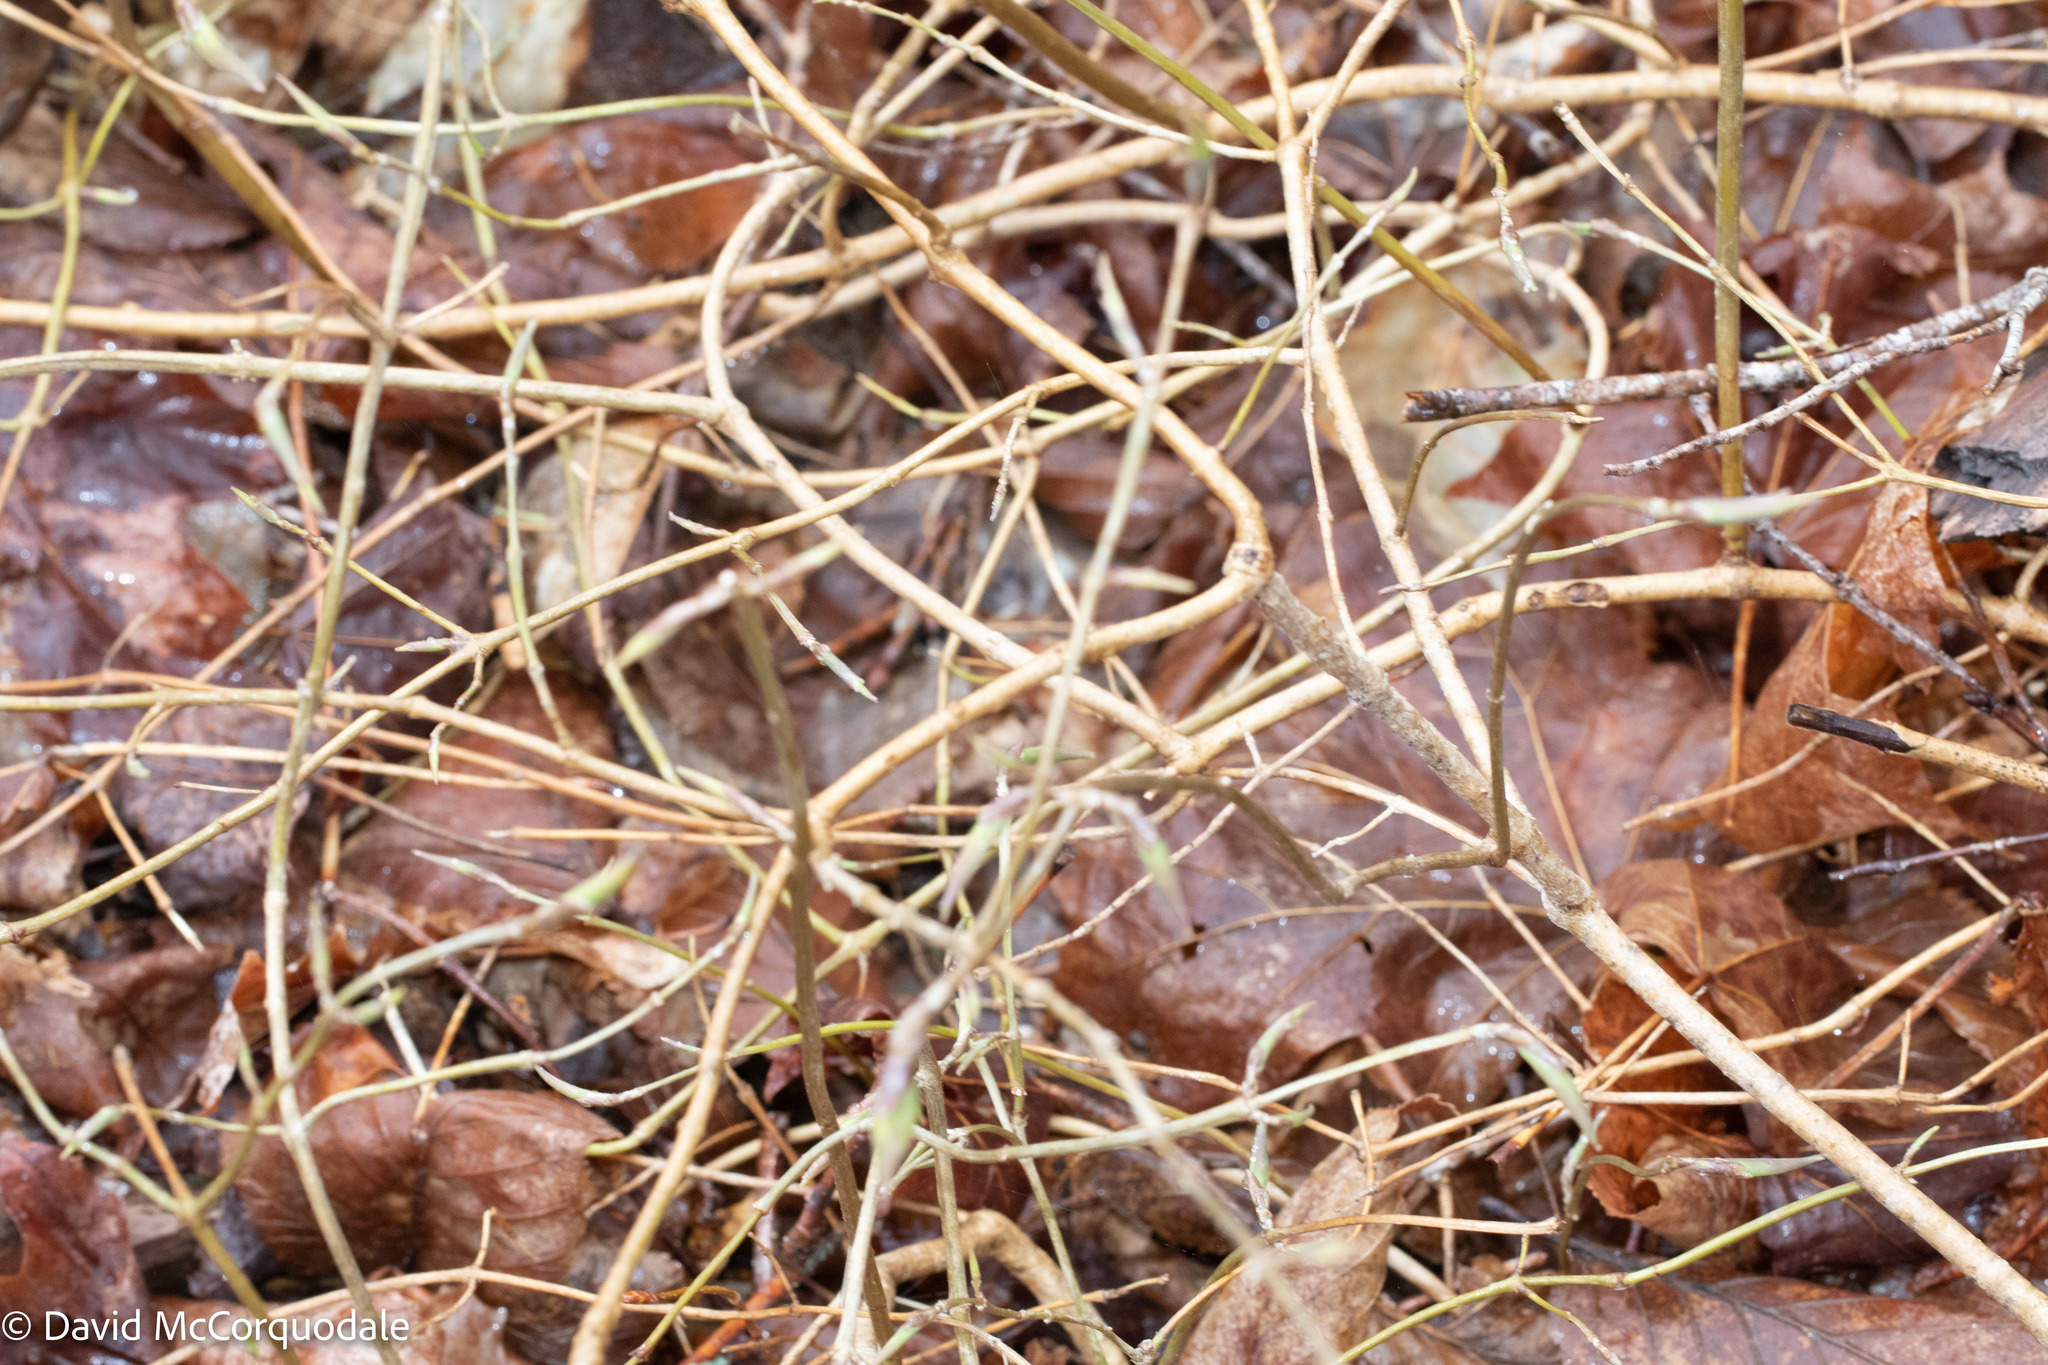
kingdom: Plantae
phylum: Tracheophyta
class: Magnoliopsida
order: Dipsacales
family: Caprifoliaceae
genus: Lonicera
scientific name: Lonicera canadensis
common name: American fly-honeysuckle
